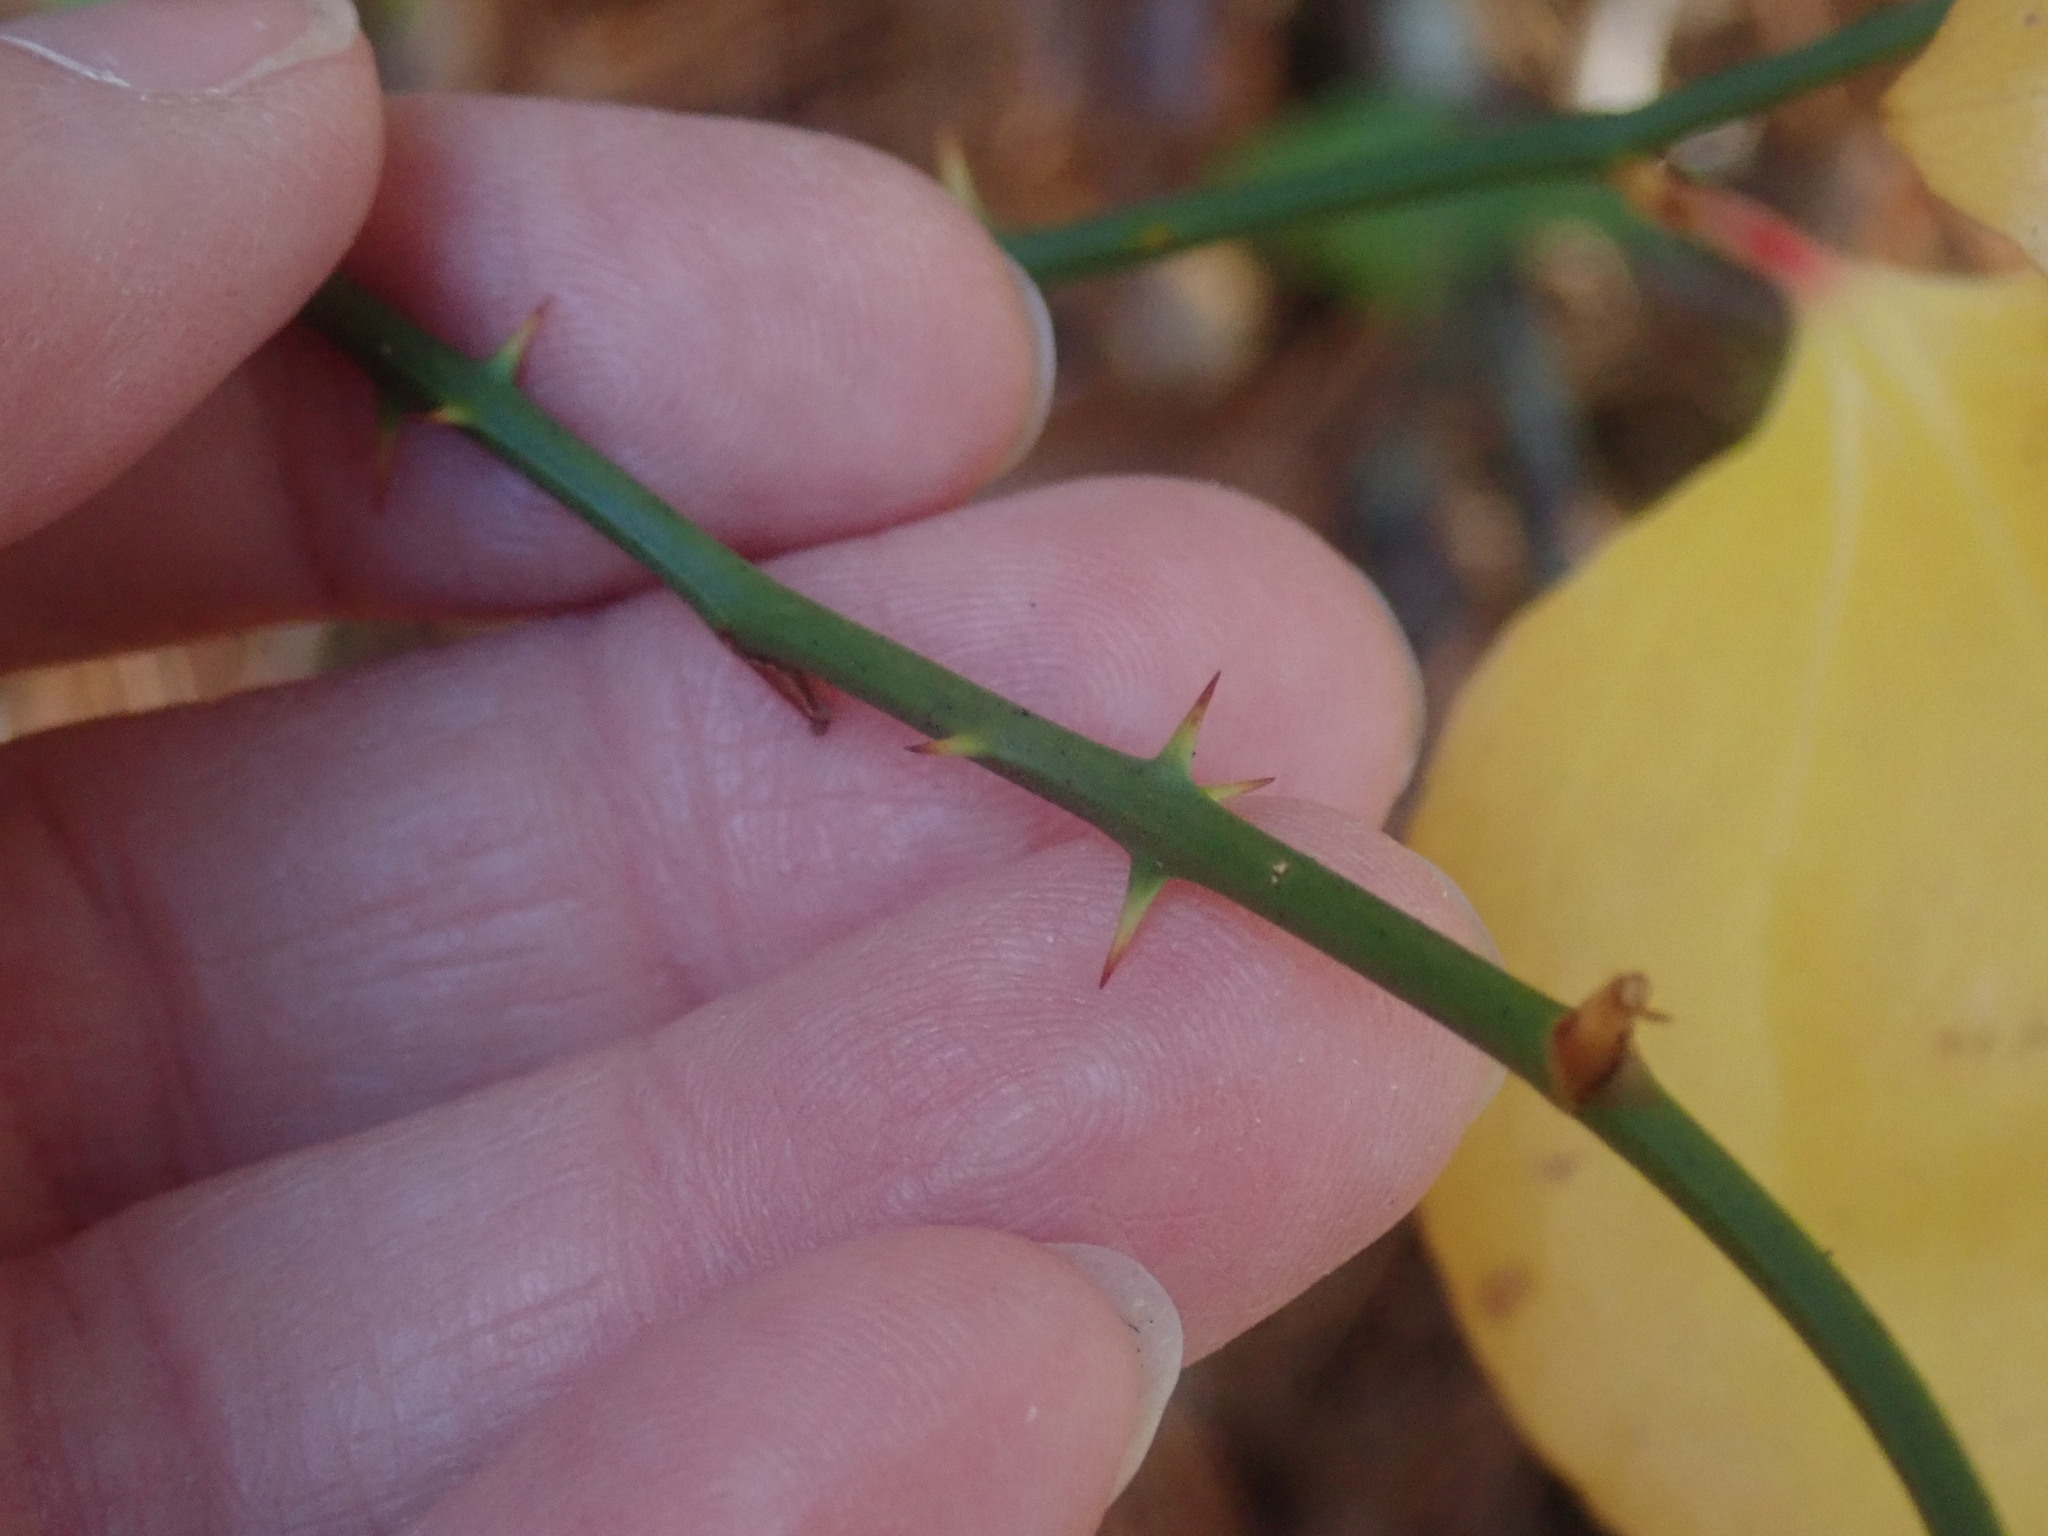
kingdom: Plantae
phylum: Tracheophyta
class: Liliopsida
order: Liliales
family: Smilacaceae
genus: Smilax
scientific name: Smilax rotundifolia
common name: Bullbriar
